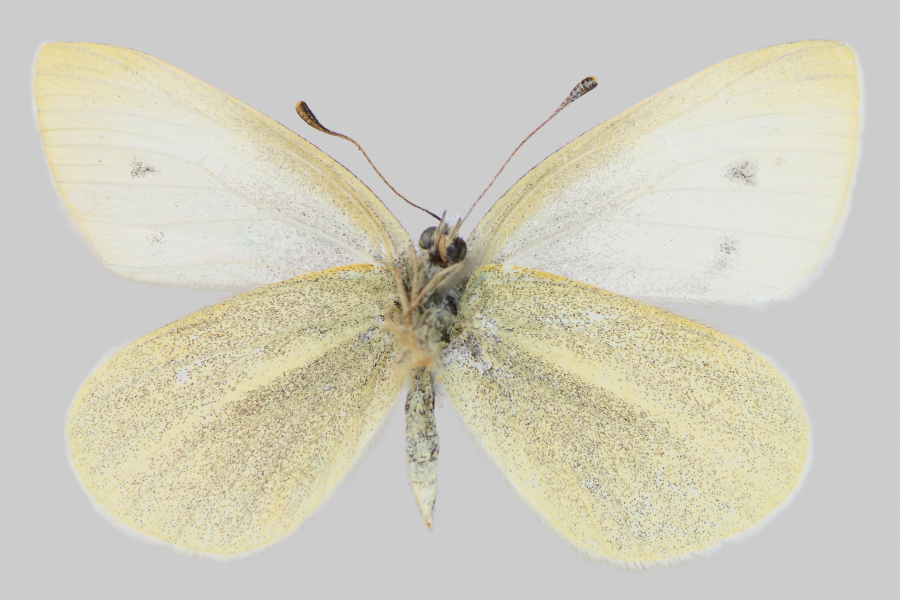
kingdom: Animalia
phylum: Arthropoda
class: Insecta
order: Lepidoptera
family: Pieridae
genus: Pieris
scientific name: Pieris rapae
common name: Small white
